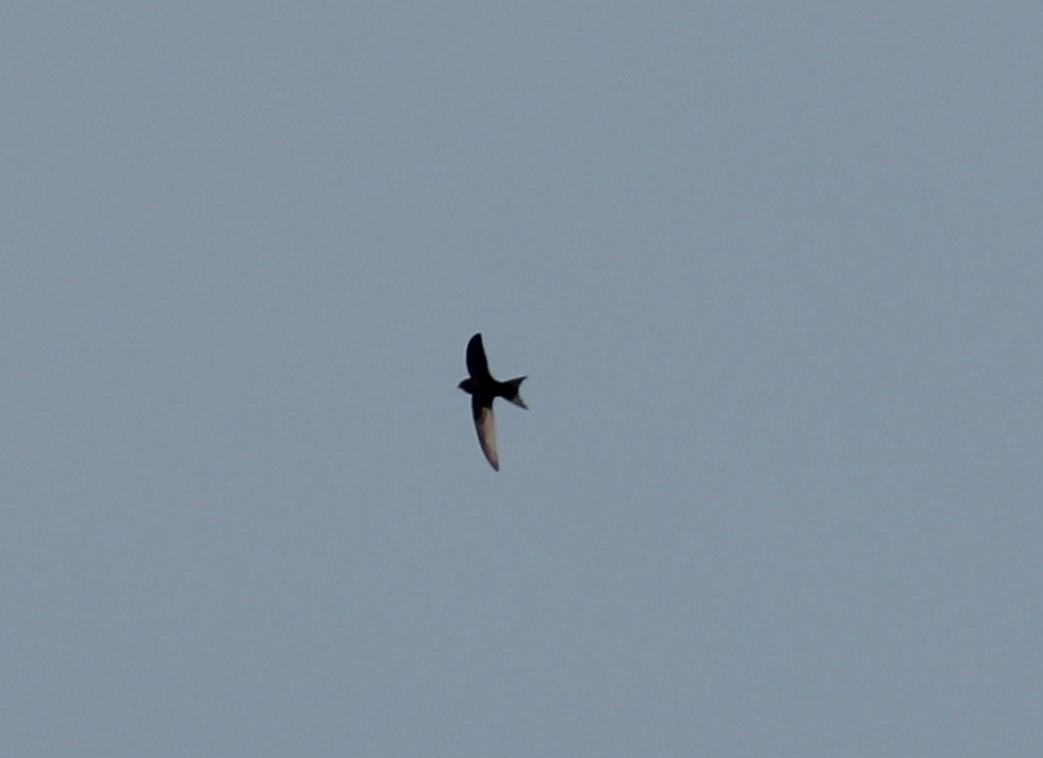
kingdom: Animalia
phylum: Chordata
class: Aves
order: Apodiformes
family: Apodidae
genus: Apus
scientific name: Apus apus
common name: Common swift
